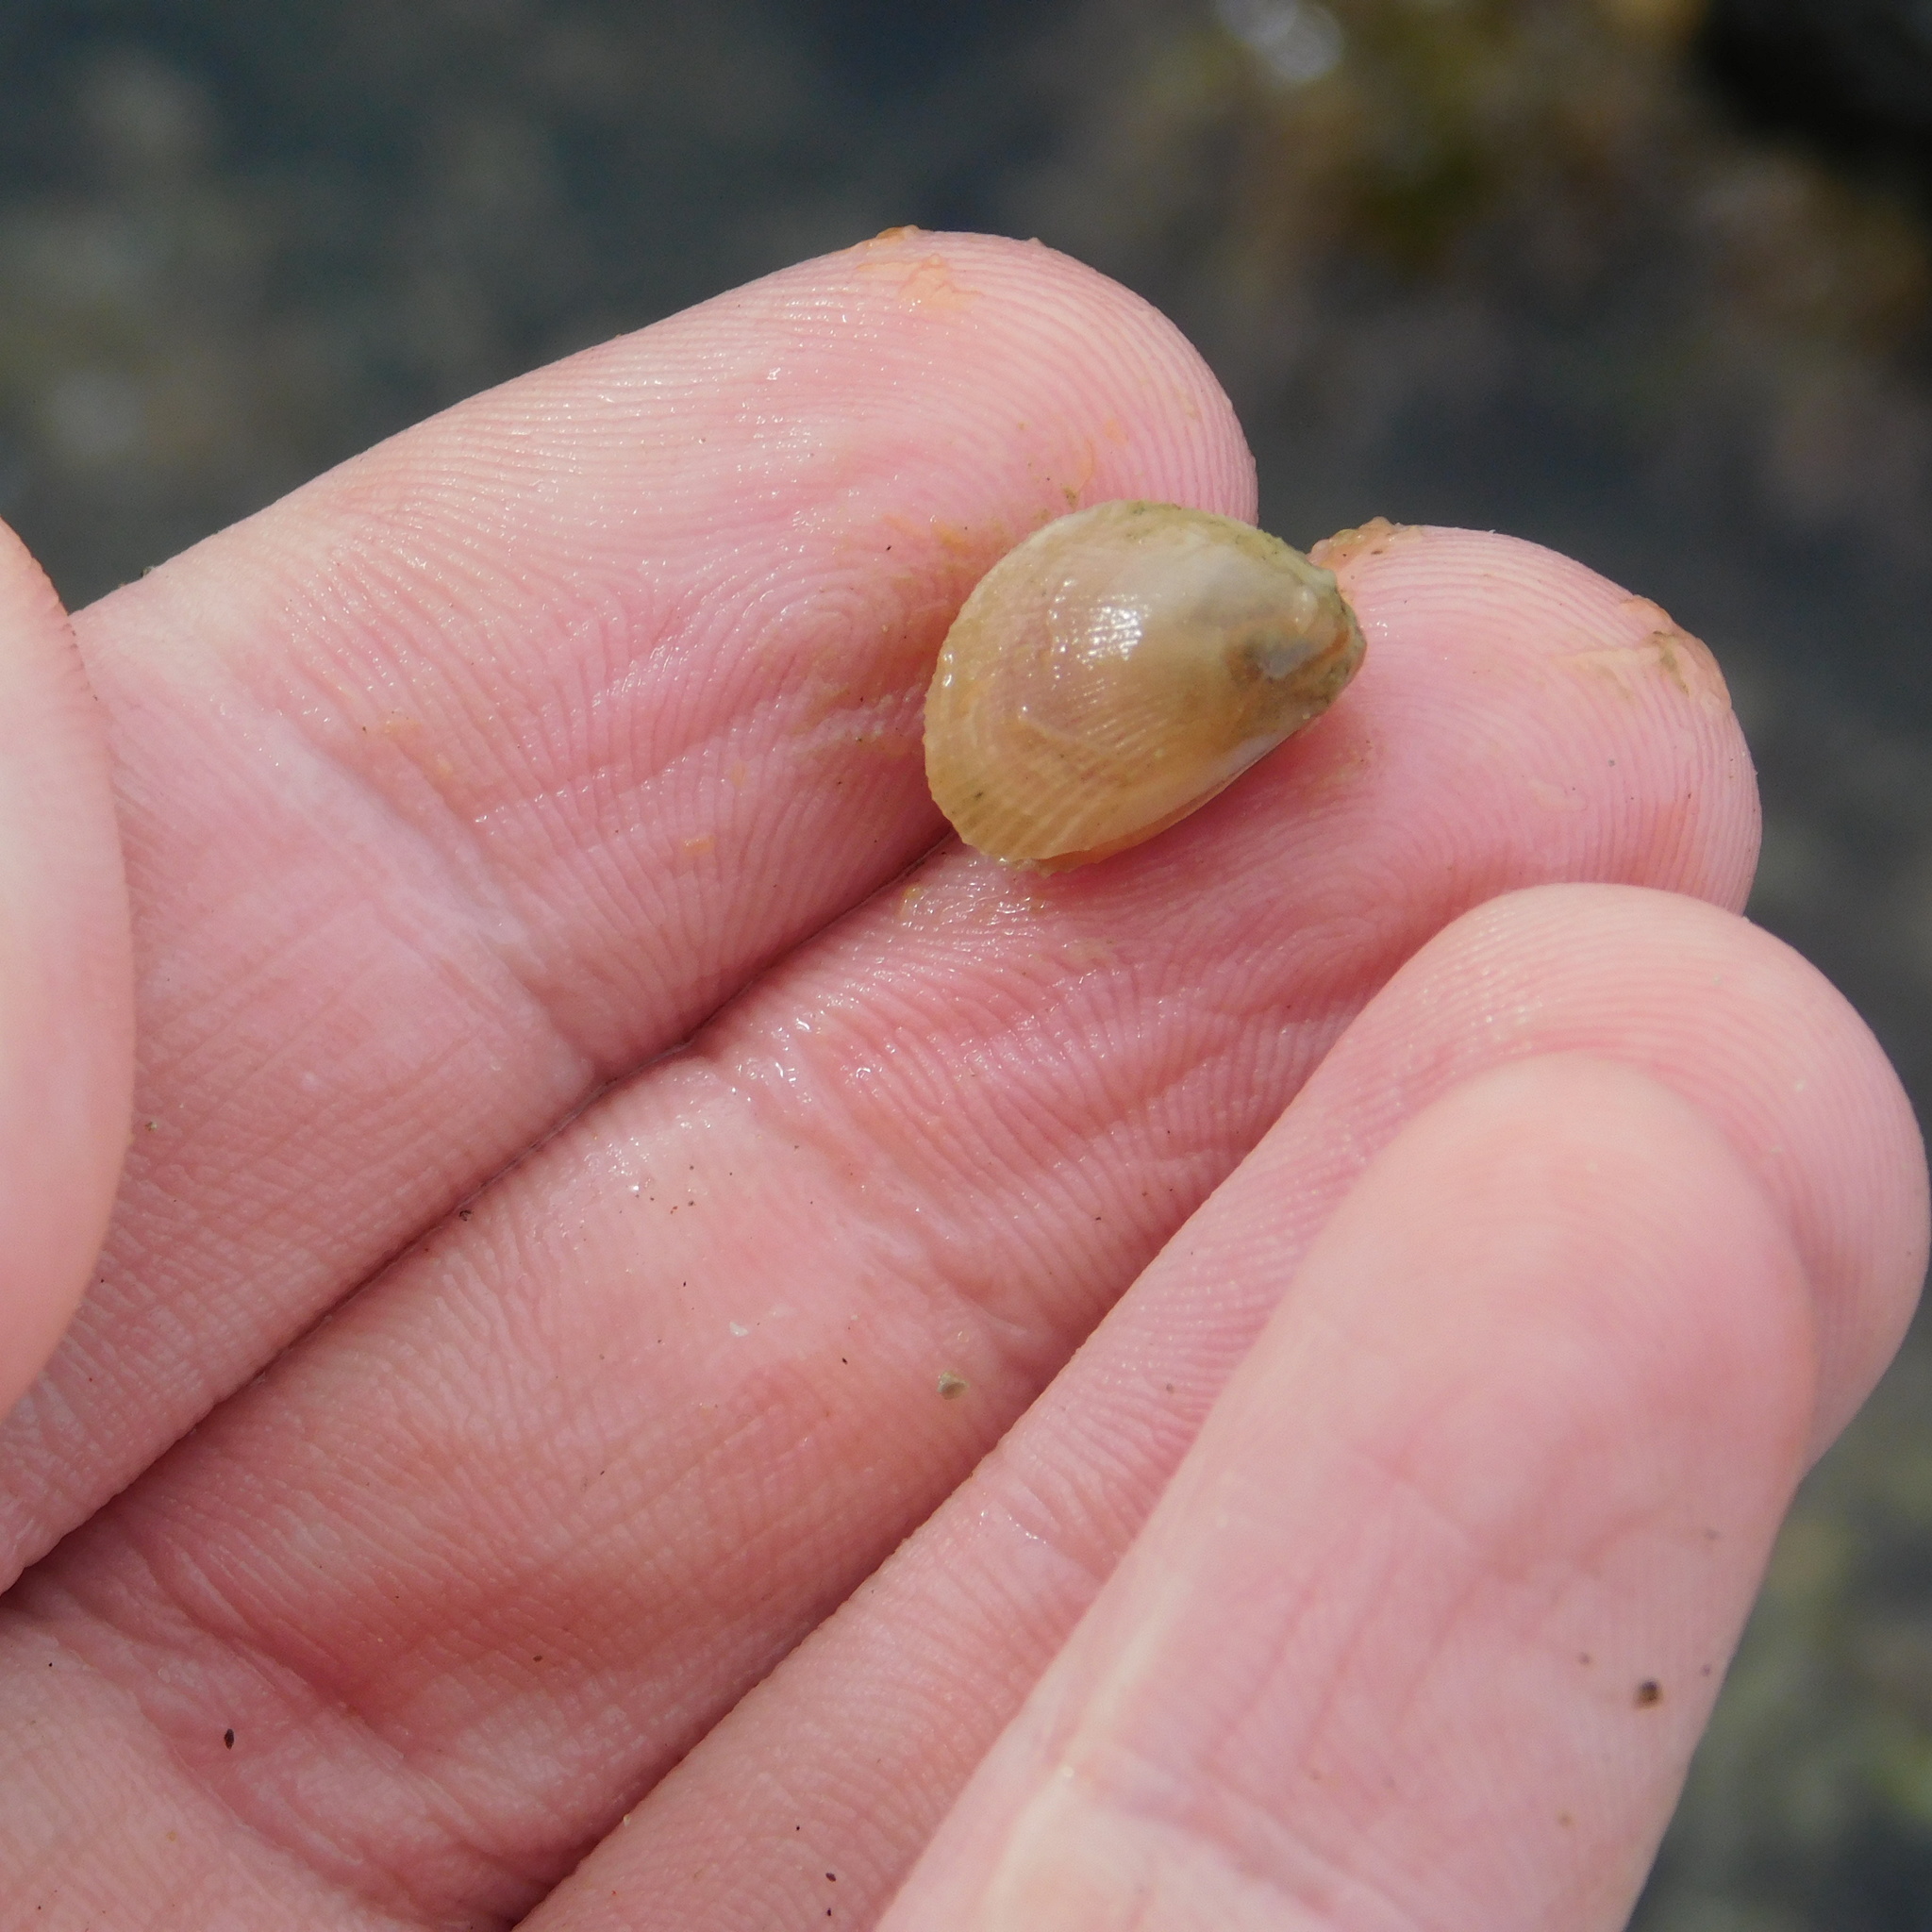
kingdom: Animalia
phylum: Mollusca
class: Bivalvia
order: Limida
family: Limidae
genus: Limaria
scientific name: Limaria orientalis
